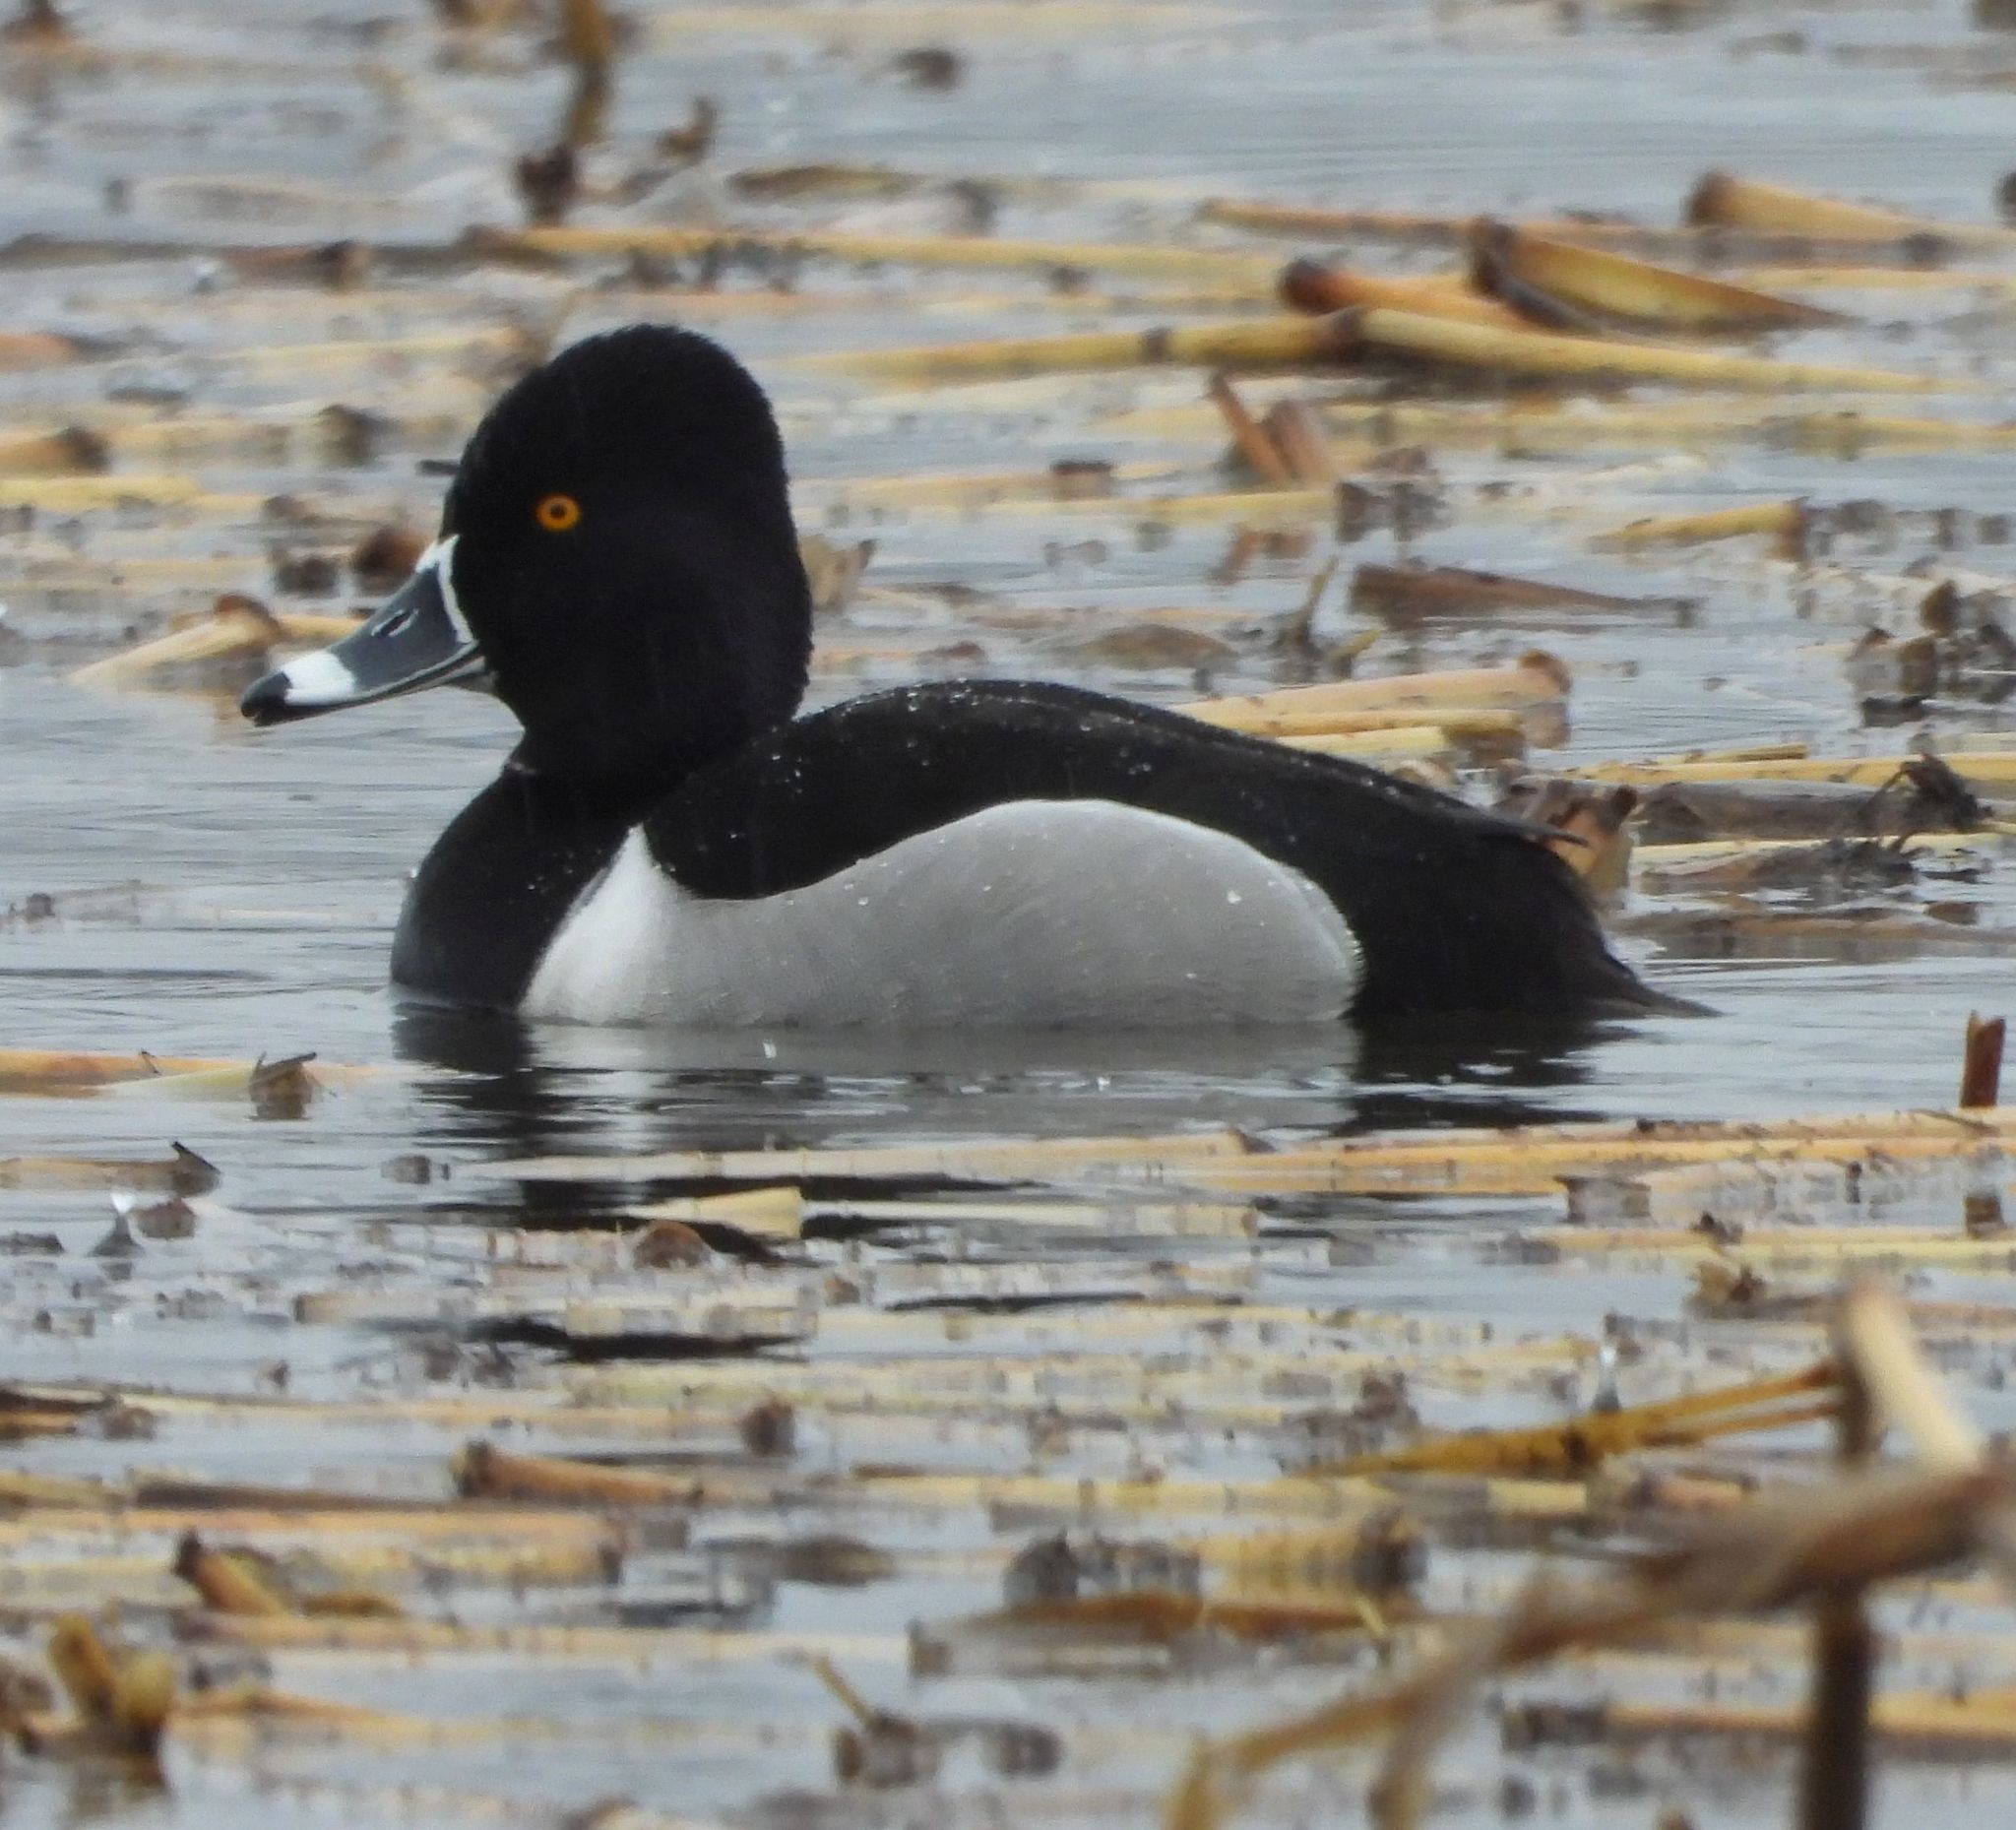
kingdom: Animalia
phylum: Chordata
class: Aves
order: Anseriformes
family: Anatidae
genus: Aythya
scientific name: Aythya collaris
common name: Ring-necked duck
